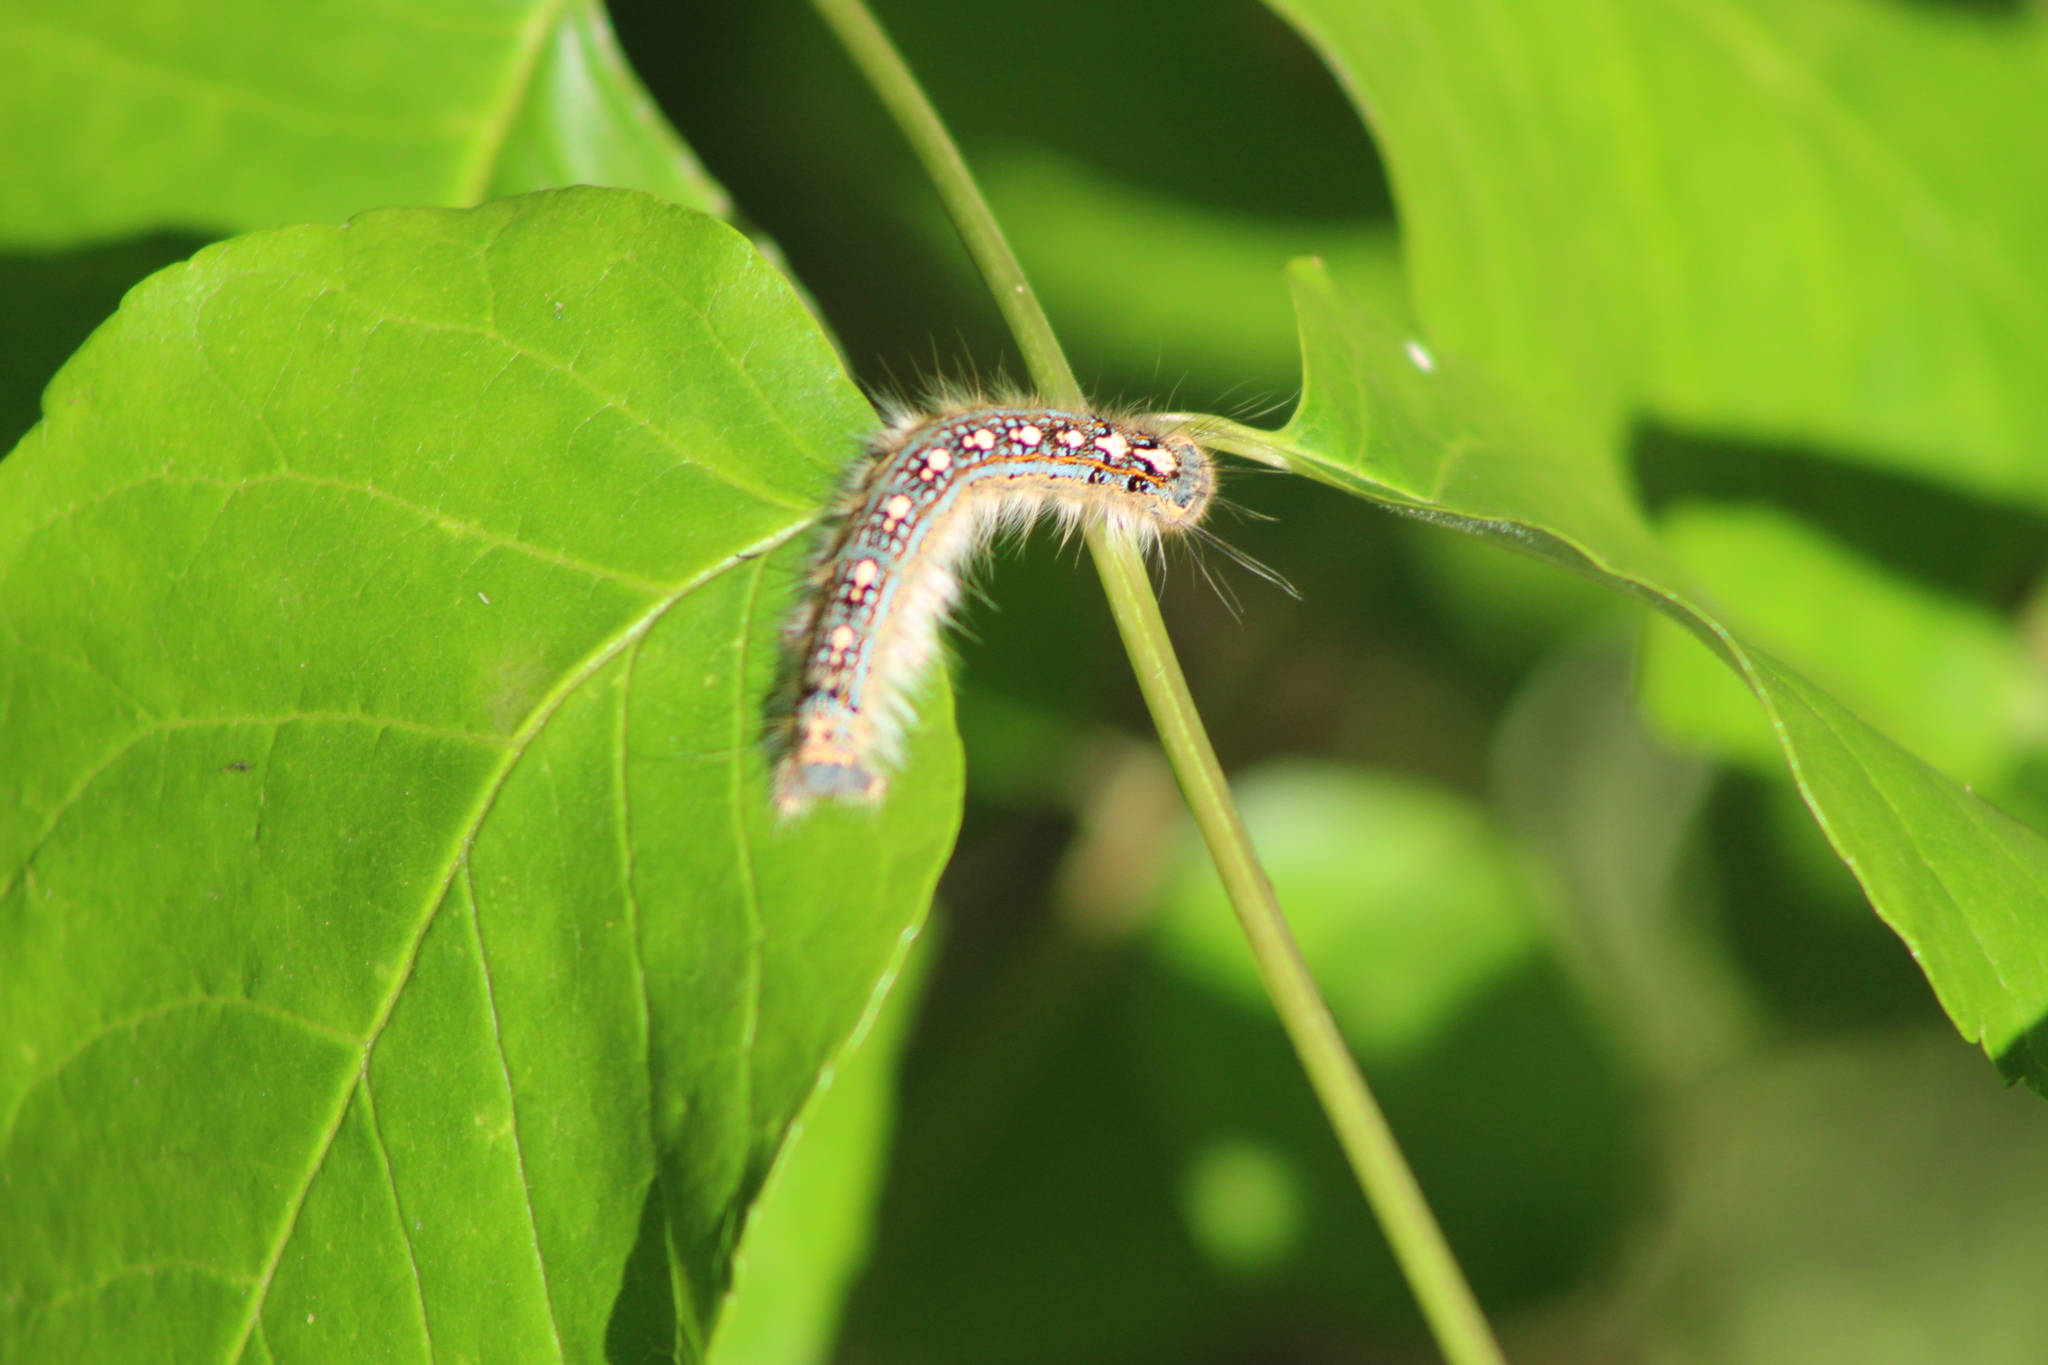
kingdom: Animalia
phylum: Arthropoda
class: Insecta
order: Lepidoptera
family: Lasiocampidae
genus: Malacosoma
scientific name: Malacosoma disstria
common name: Forest tent caterpillar
